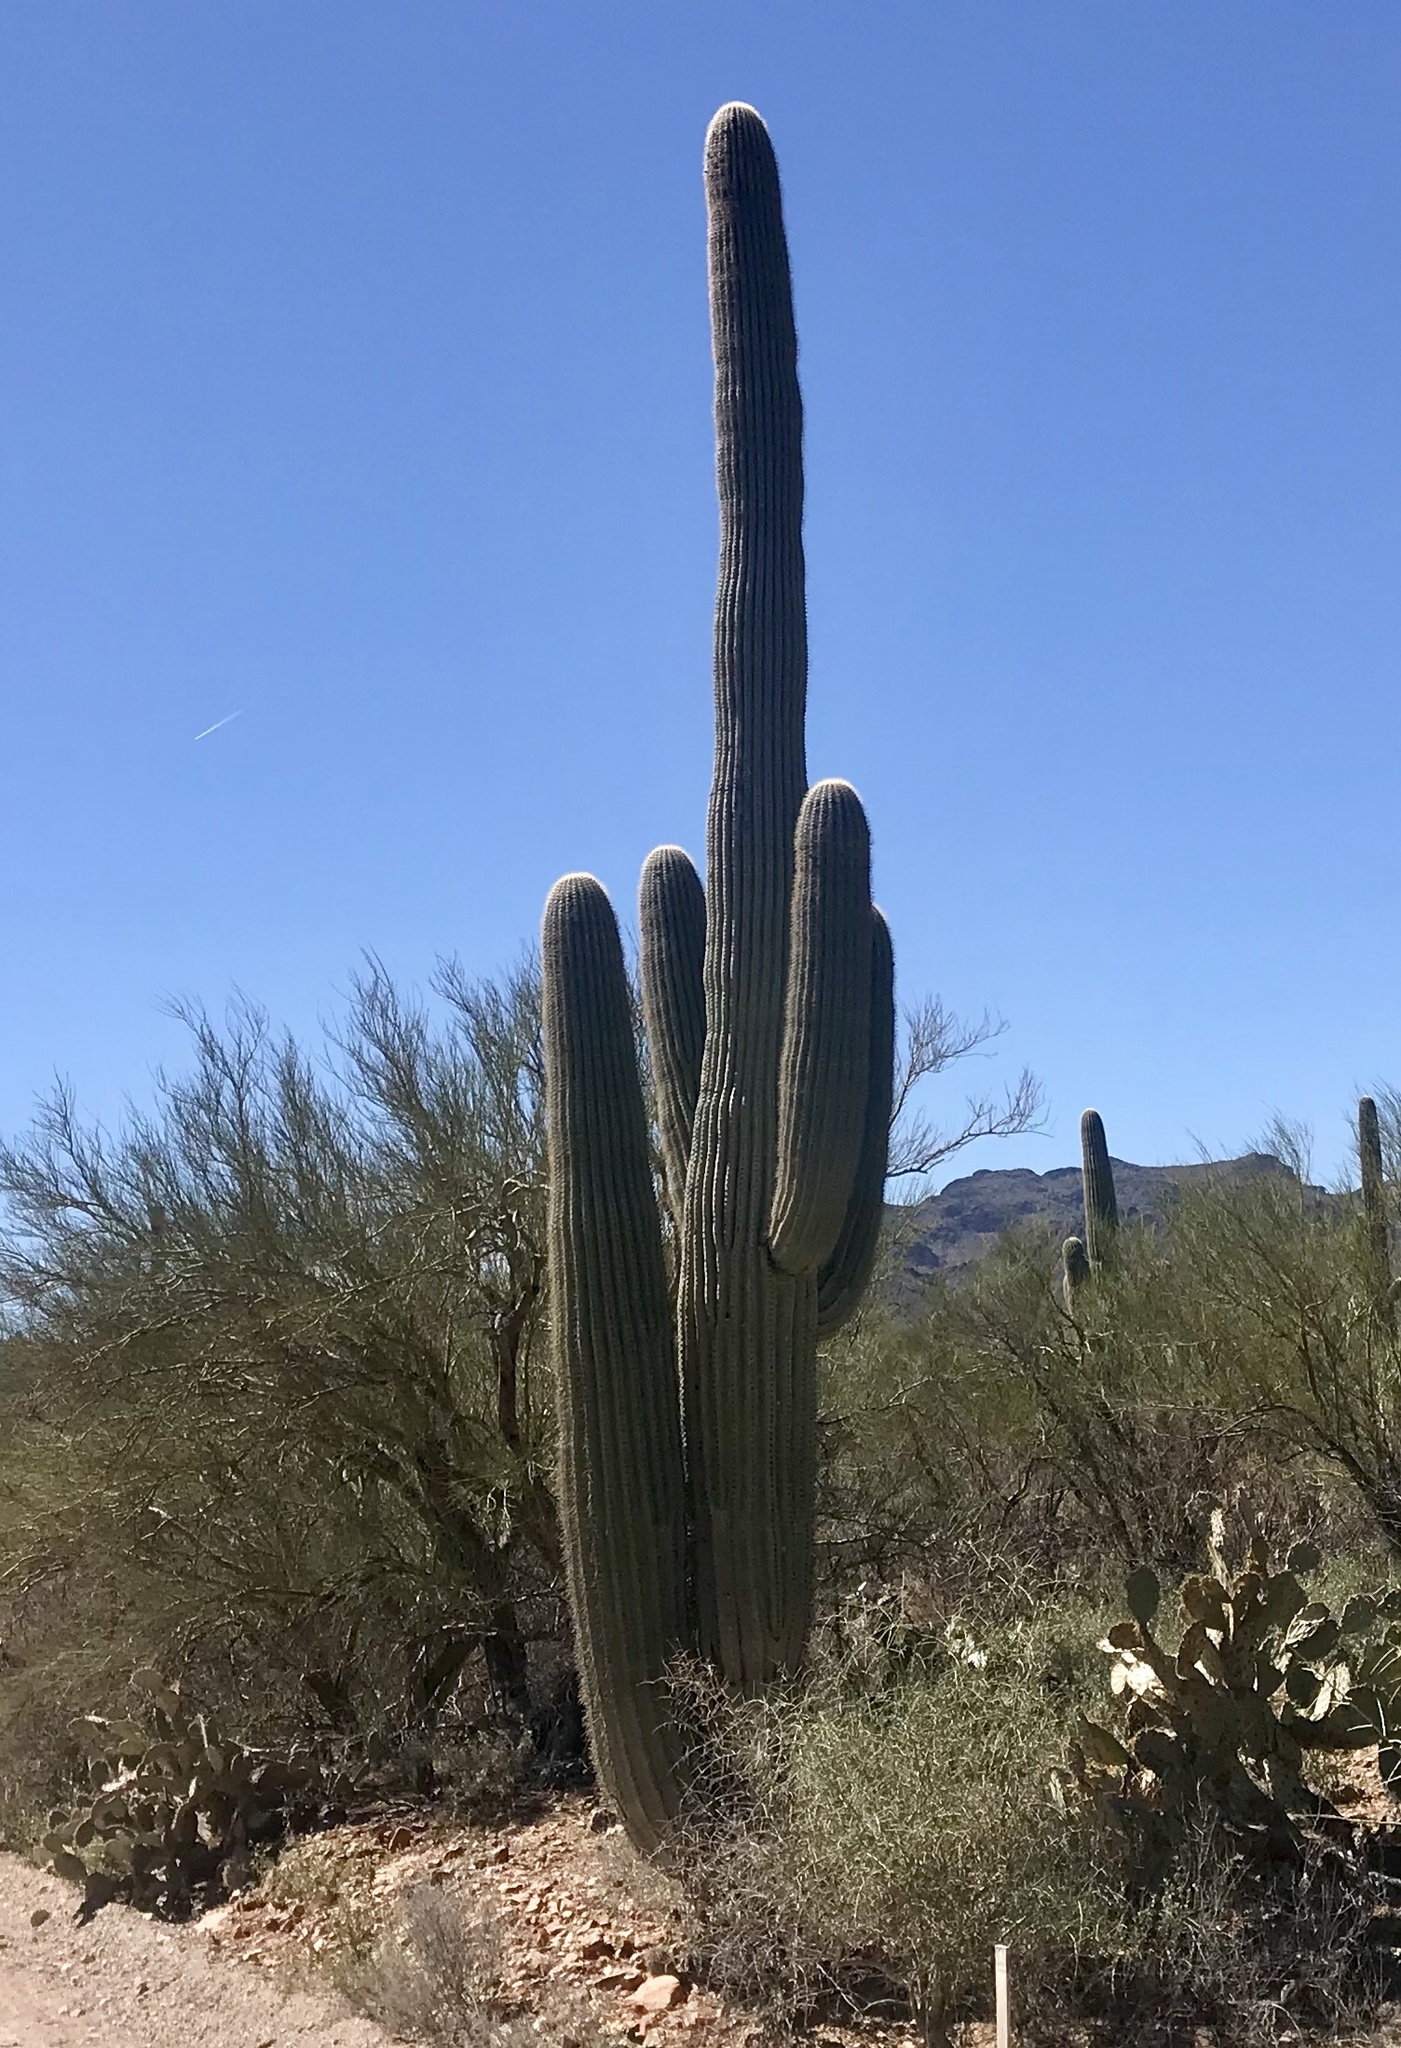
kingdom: Plantae
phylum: Tracheophyta
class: Magnoliopsida
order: Caryophyllales
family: Cactaceae
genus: Carnegiea
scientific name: Carnegiea gigantea
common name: Saguaro
